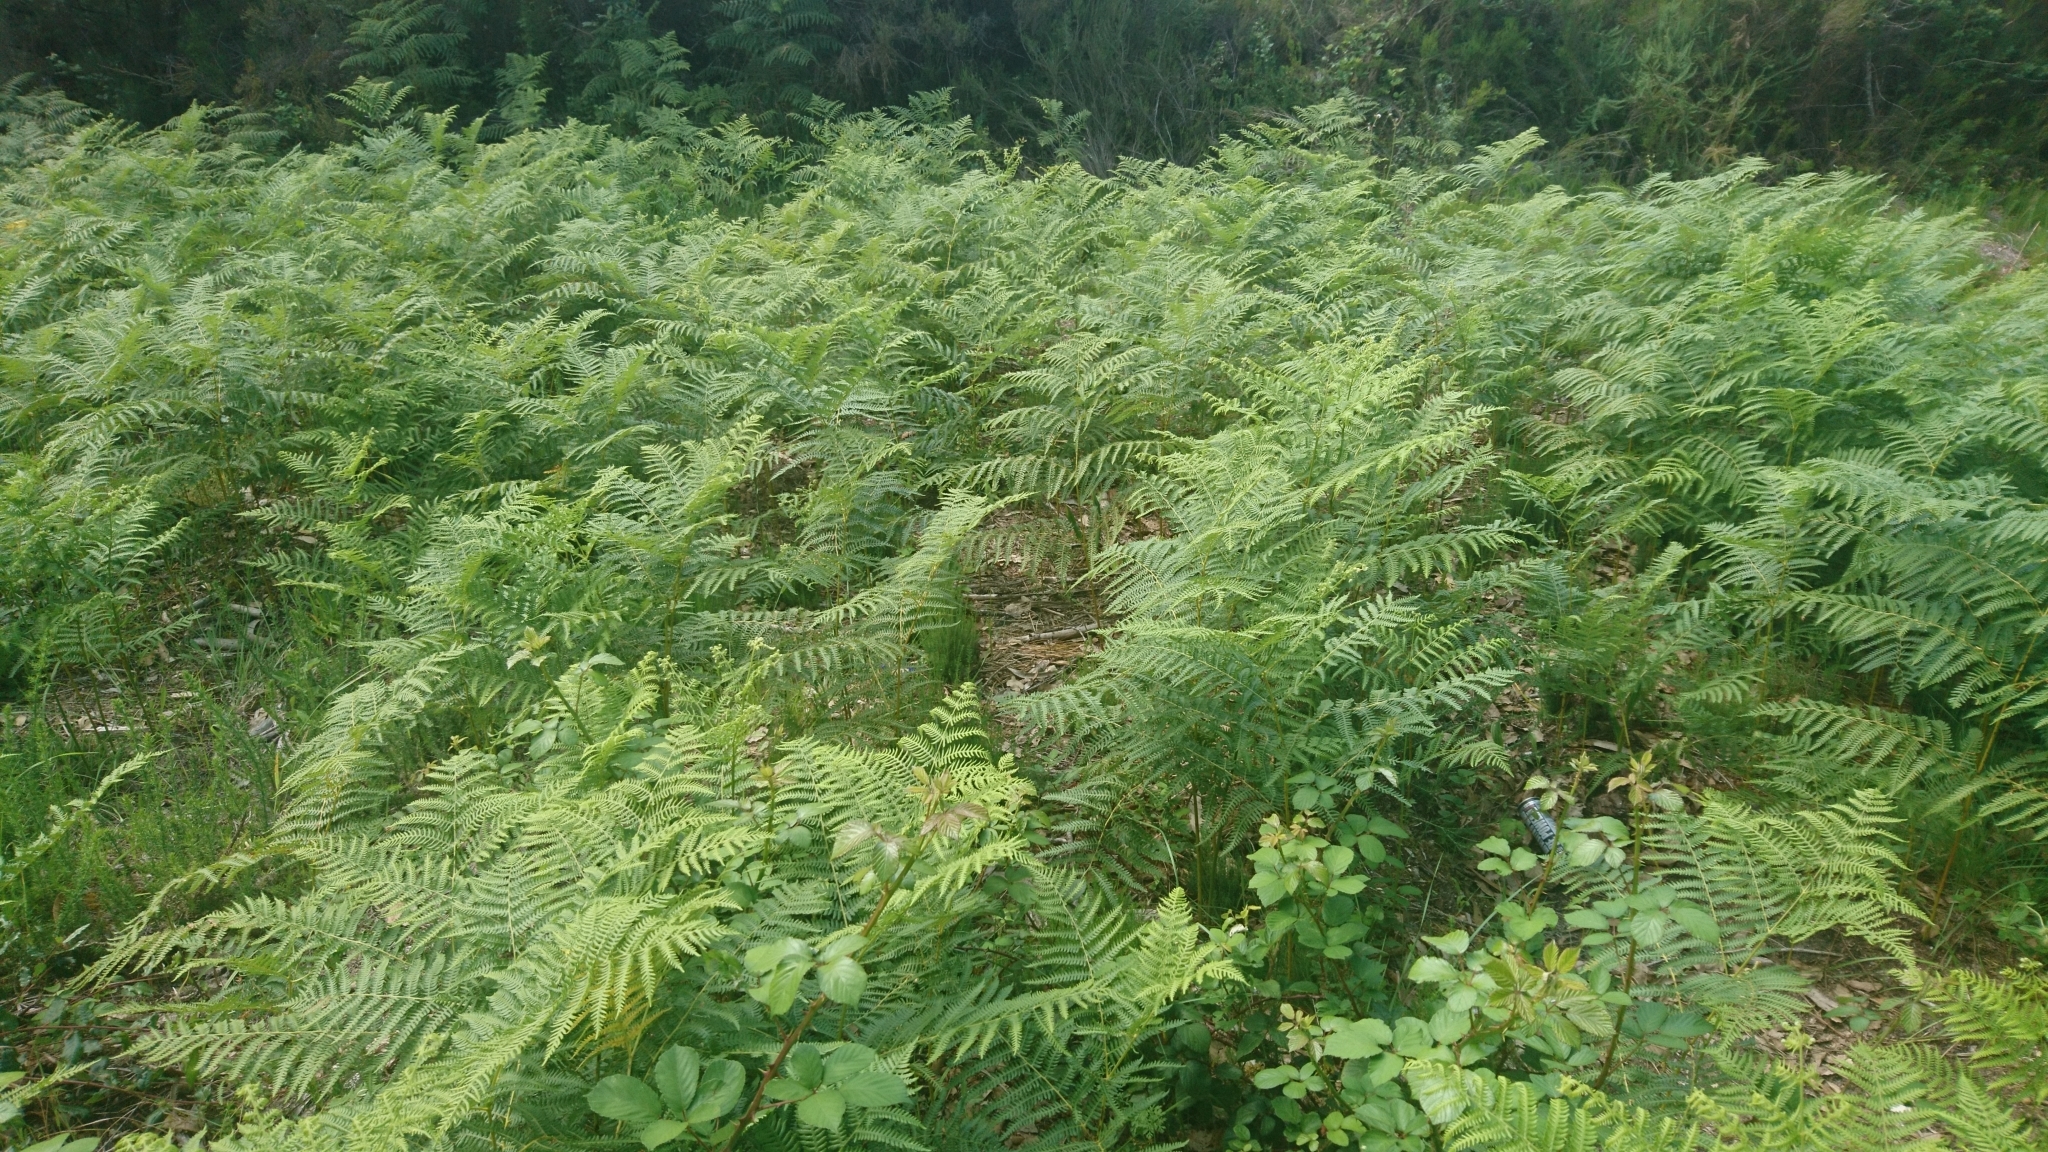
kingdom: Plantae
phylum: Tracheophyta
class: Polypodiopsida
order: Polypodiales
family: Dennstaedtiaceae
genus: Pteridium
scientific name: Pteridium aquilinum
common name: Bracken
